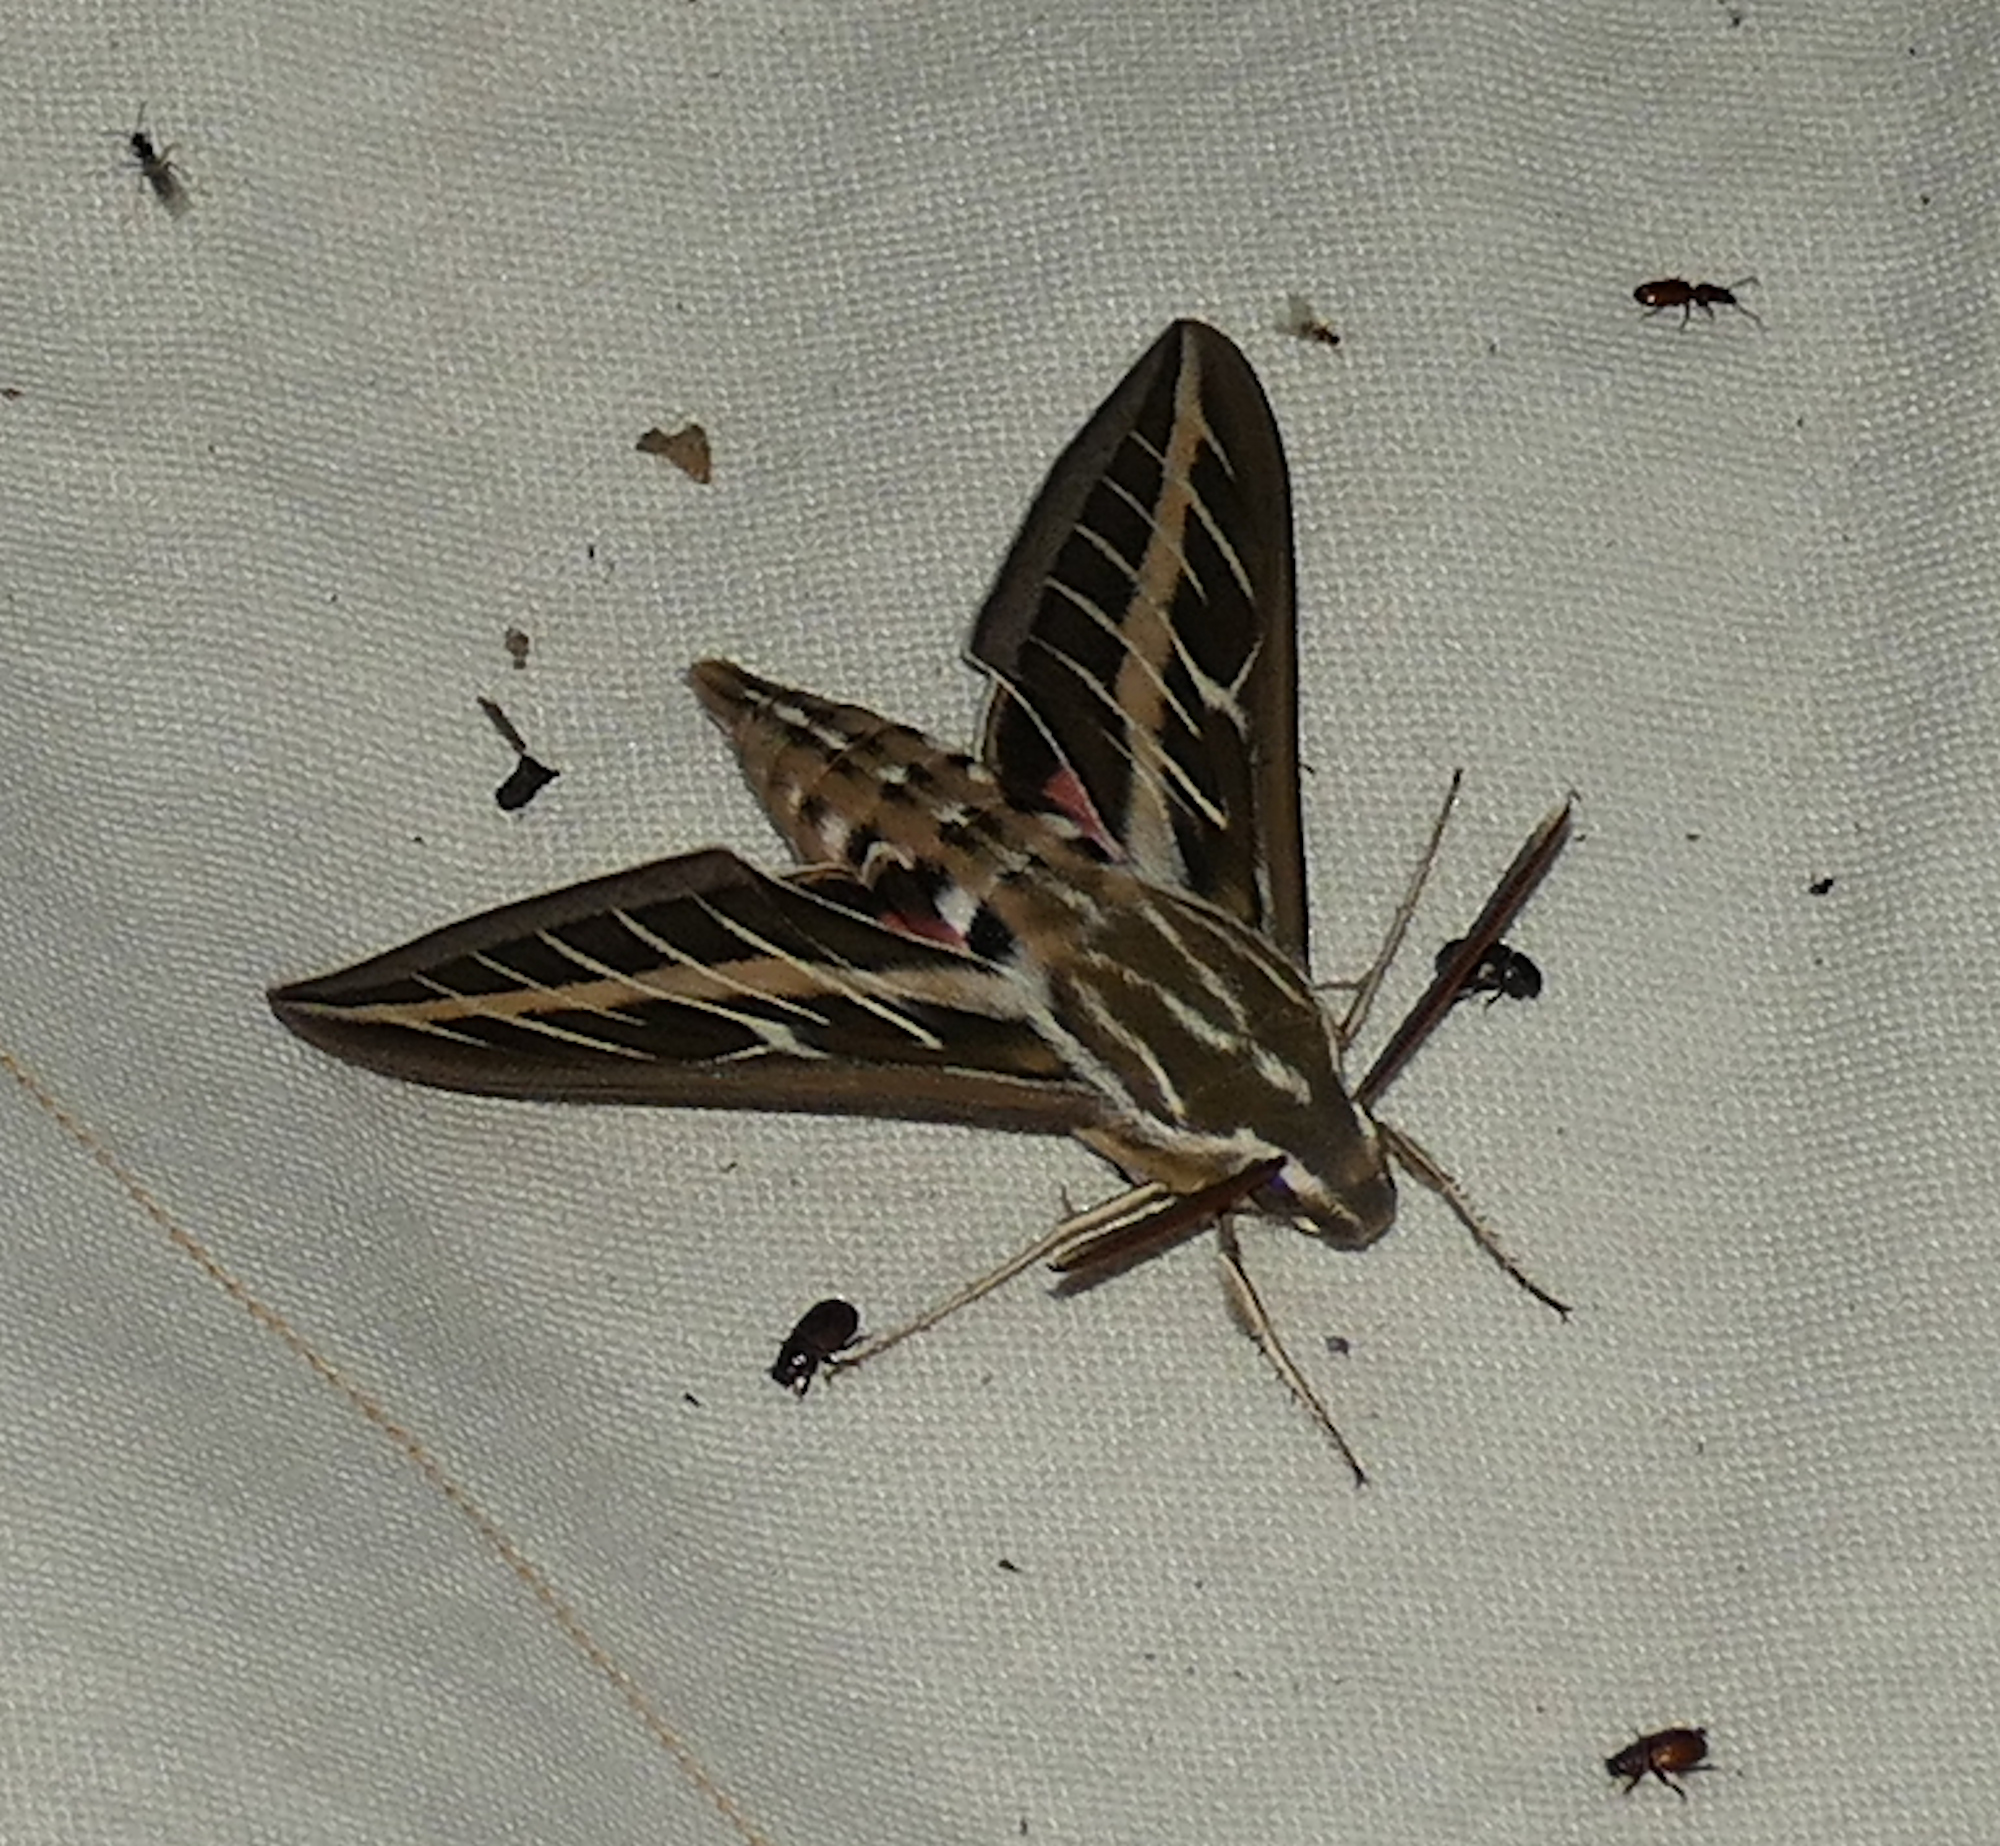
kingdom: Animalia
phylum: Arthropoda
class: Insecta
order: Lepidoptera
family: Sphingidae
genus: Hyles
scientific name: Hyles lineata
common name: White-lined sphinx
